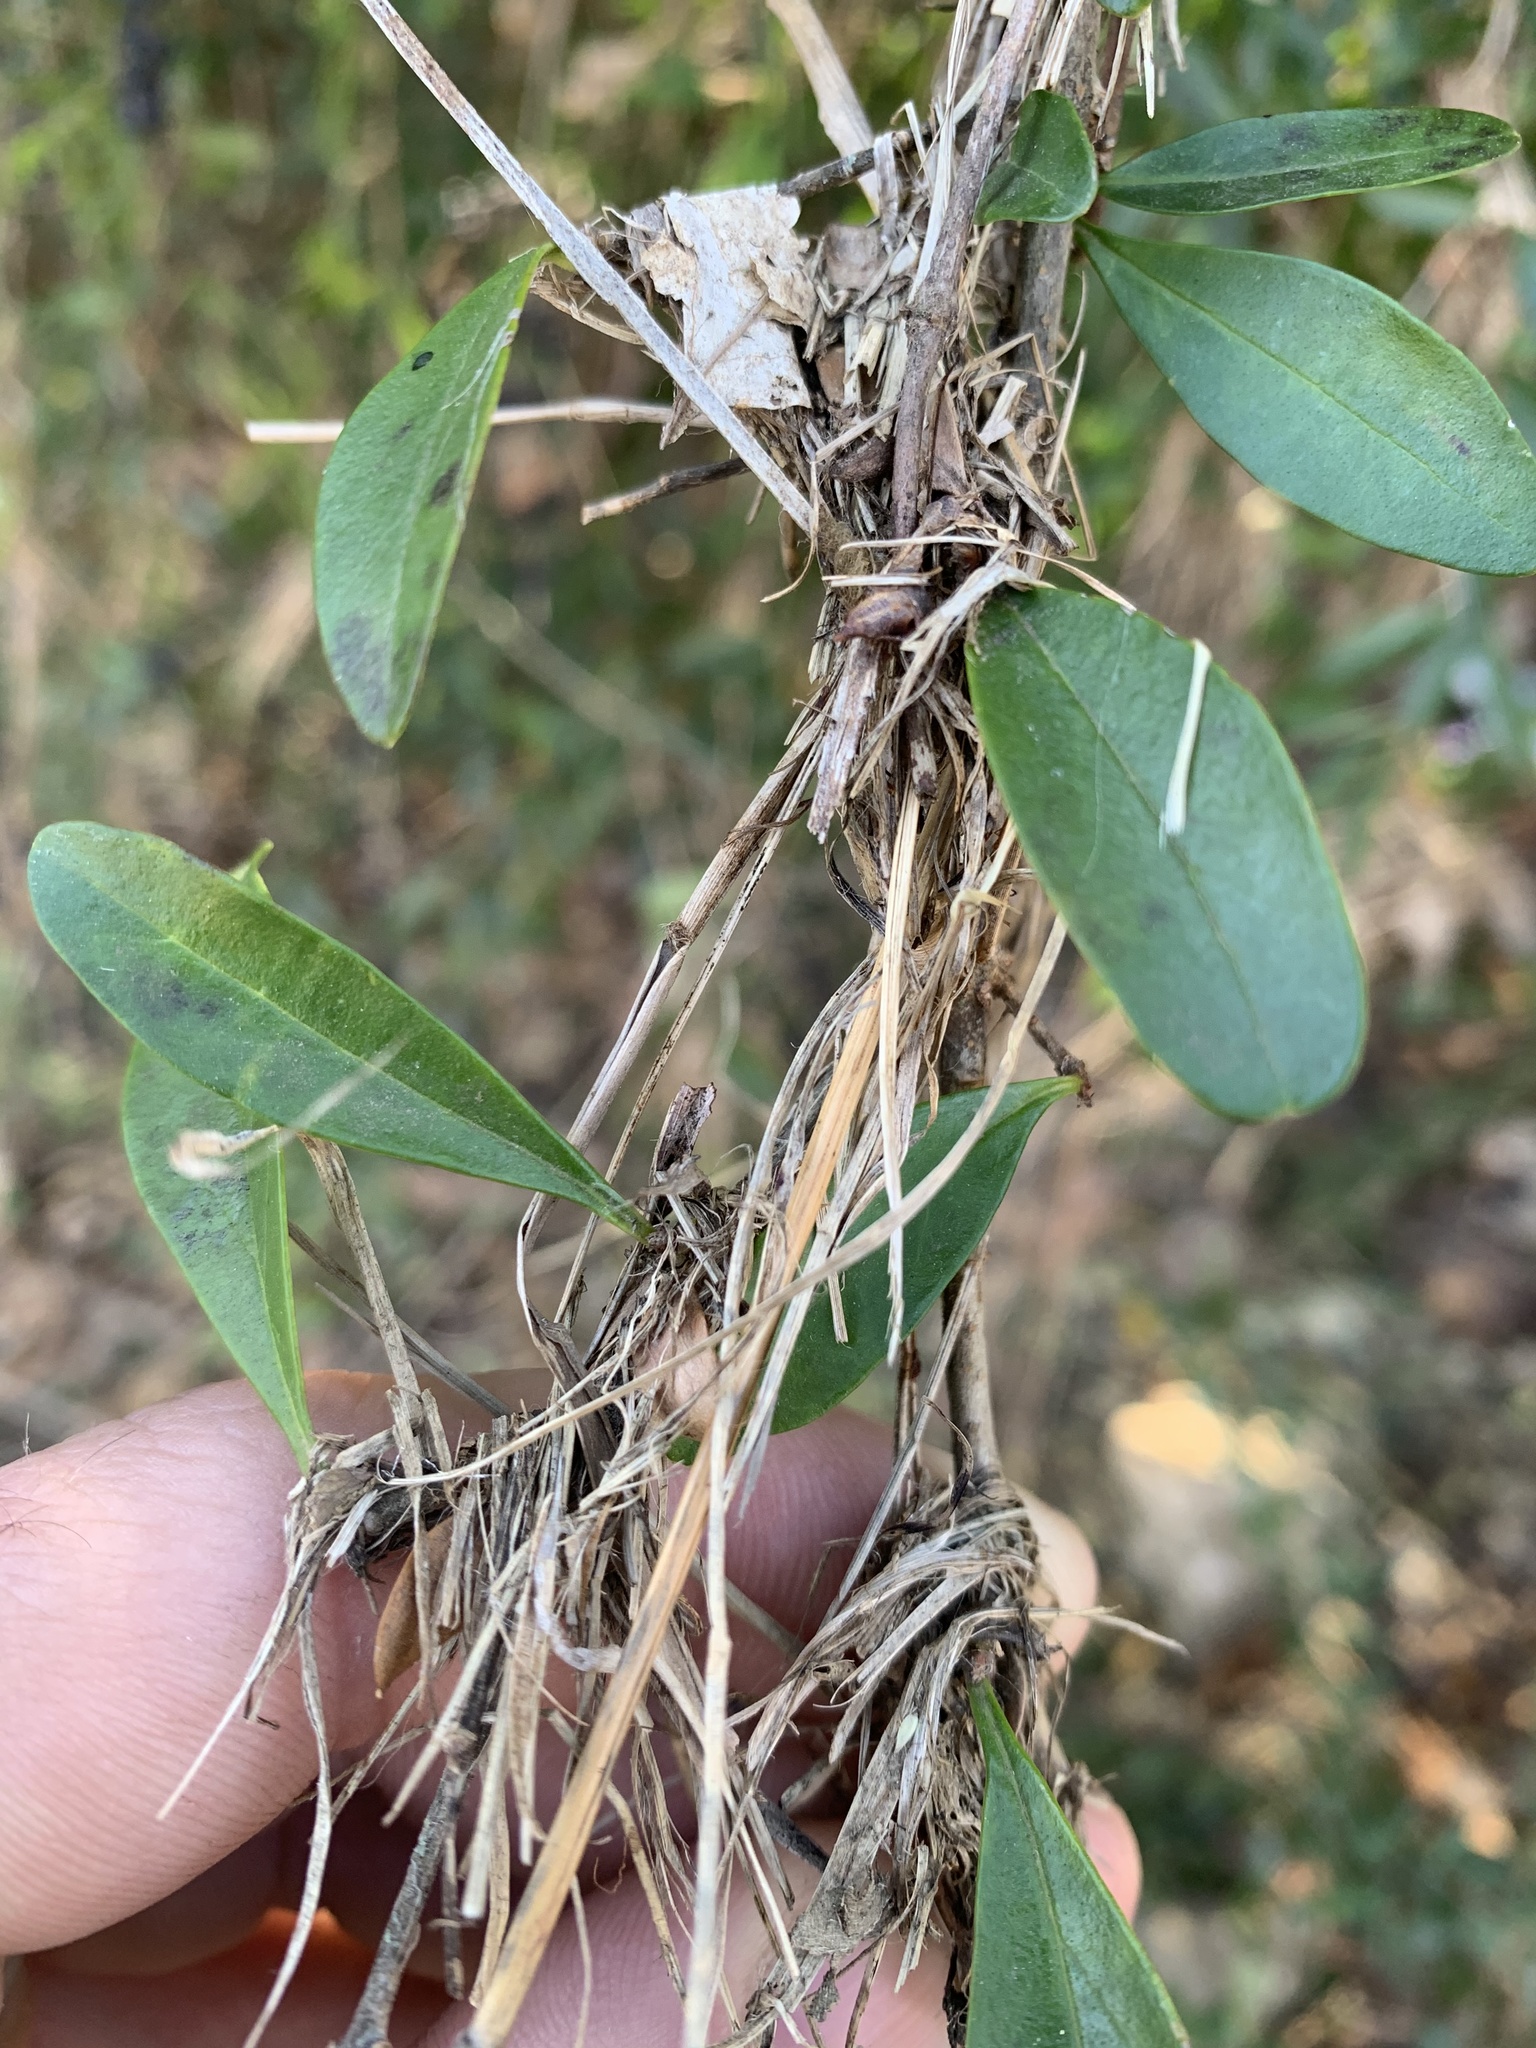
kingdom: Plantae
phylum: Tracheophyta
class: Magnoliopsida
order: Lamiales
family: Oleaceae
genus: Ligustrum
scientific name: Ligustrum quihoui
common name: Waxyleaf privet
